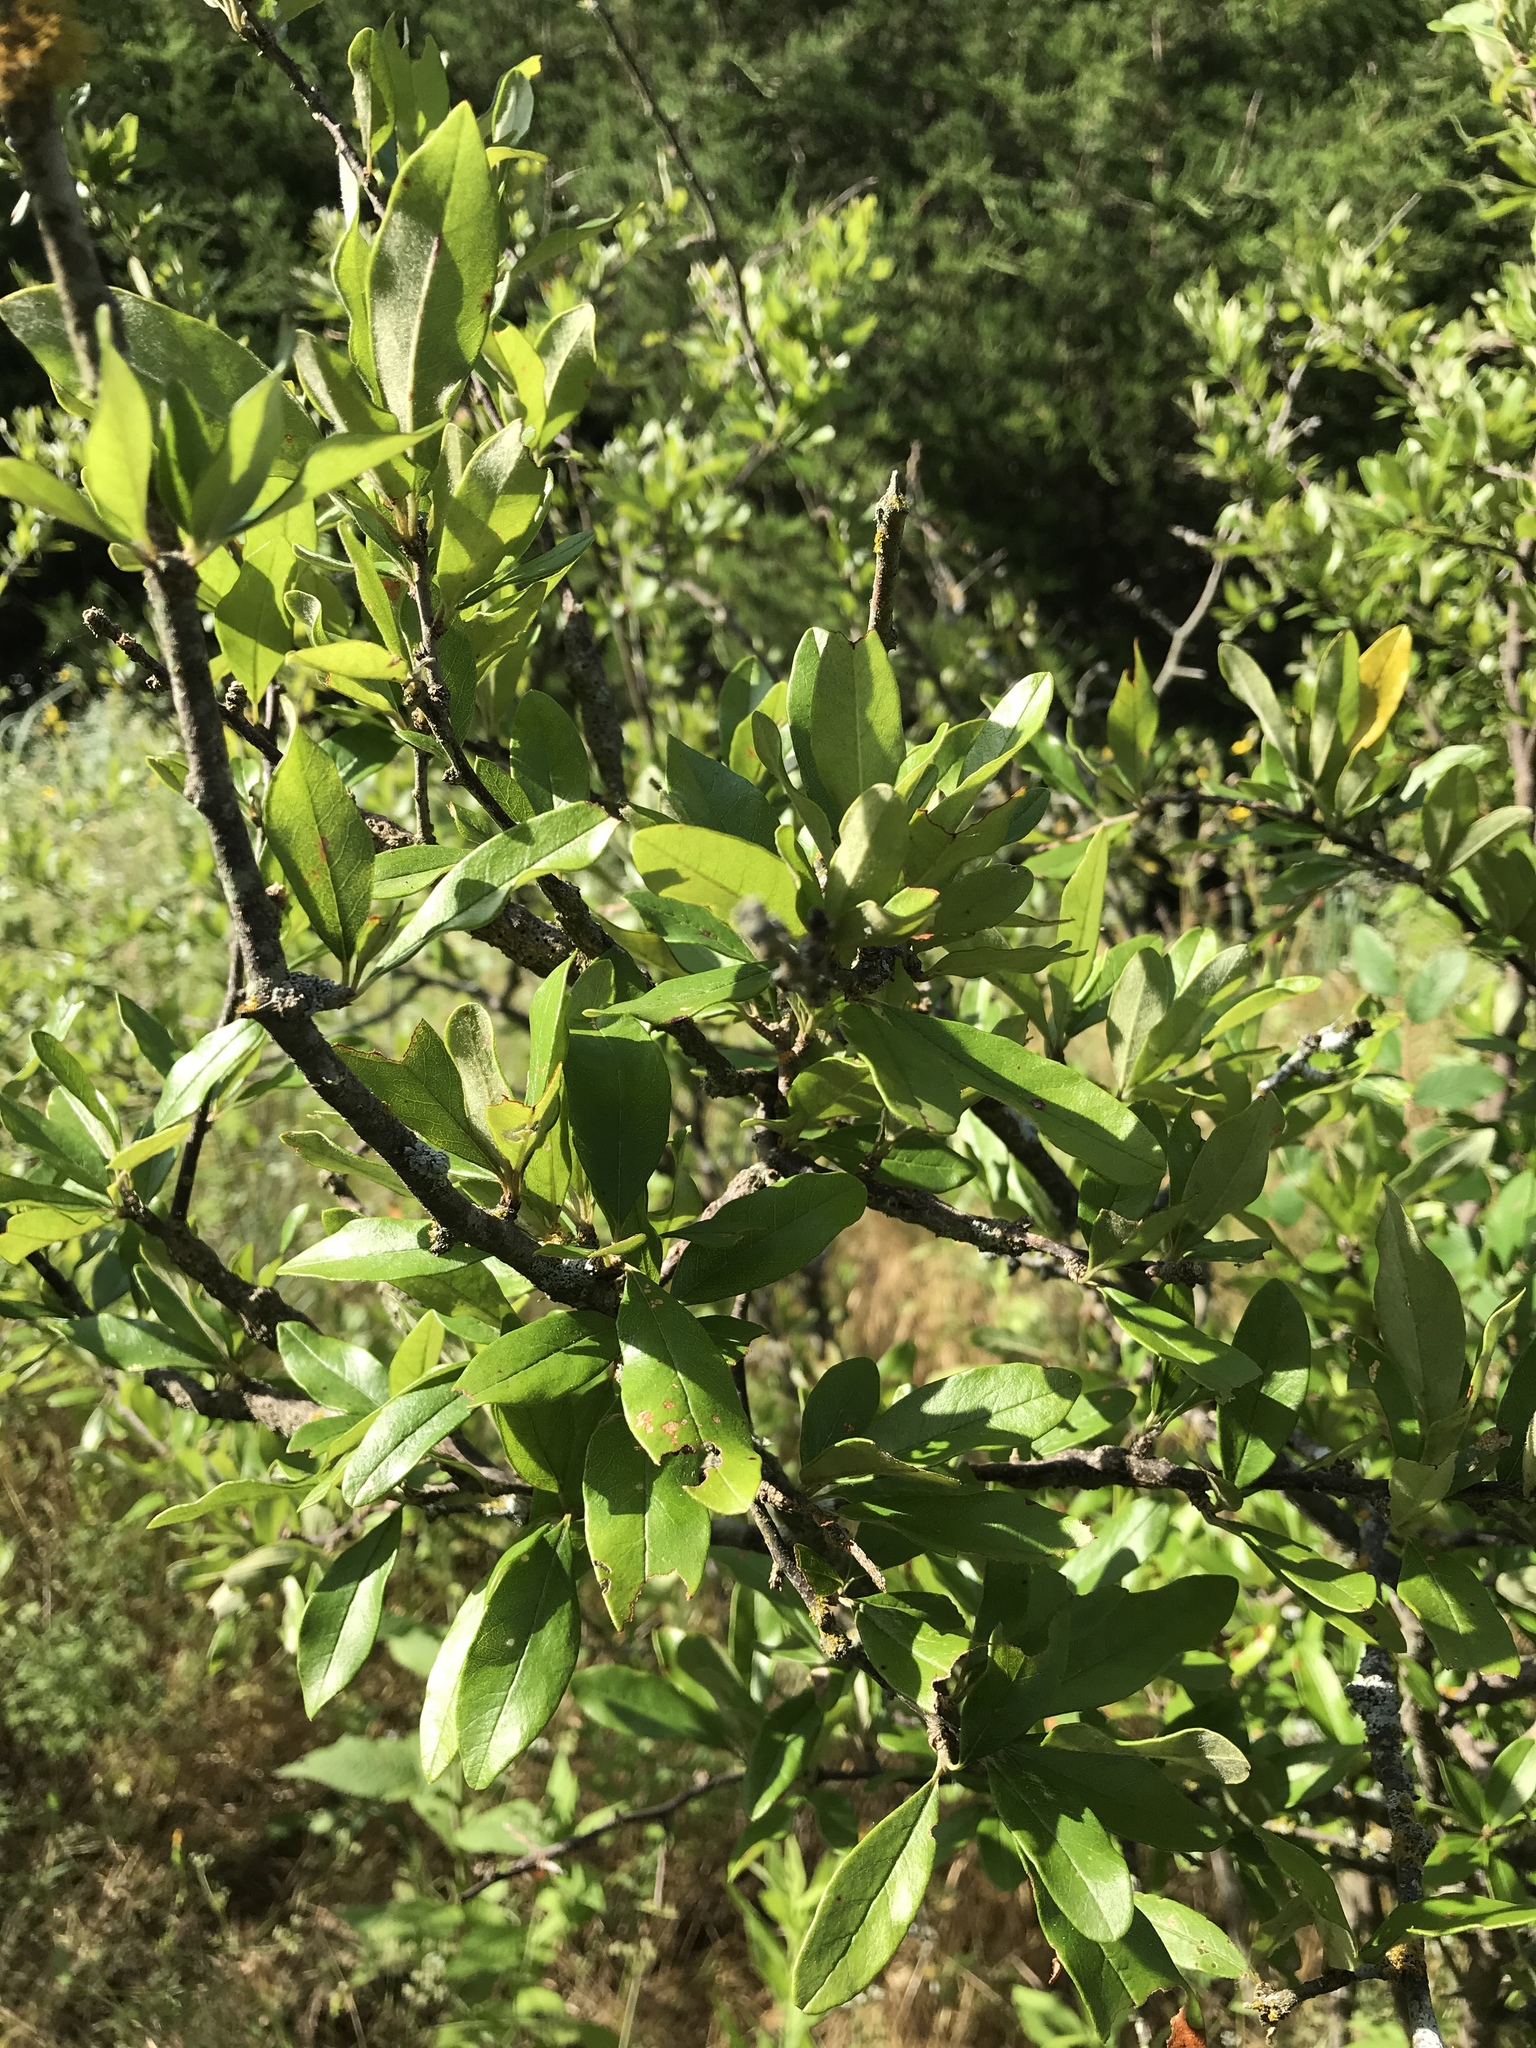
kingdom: Plantae
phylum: Tracheophyta
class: Magnoliopsida
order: Ericales
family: Sapotaceae
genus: Sideroxylon
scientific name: Sideroxylon lanuginosum
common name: Chittamwood
